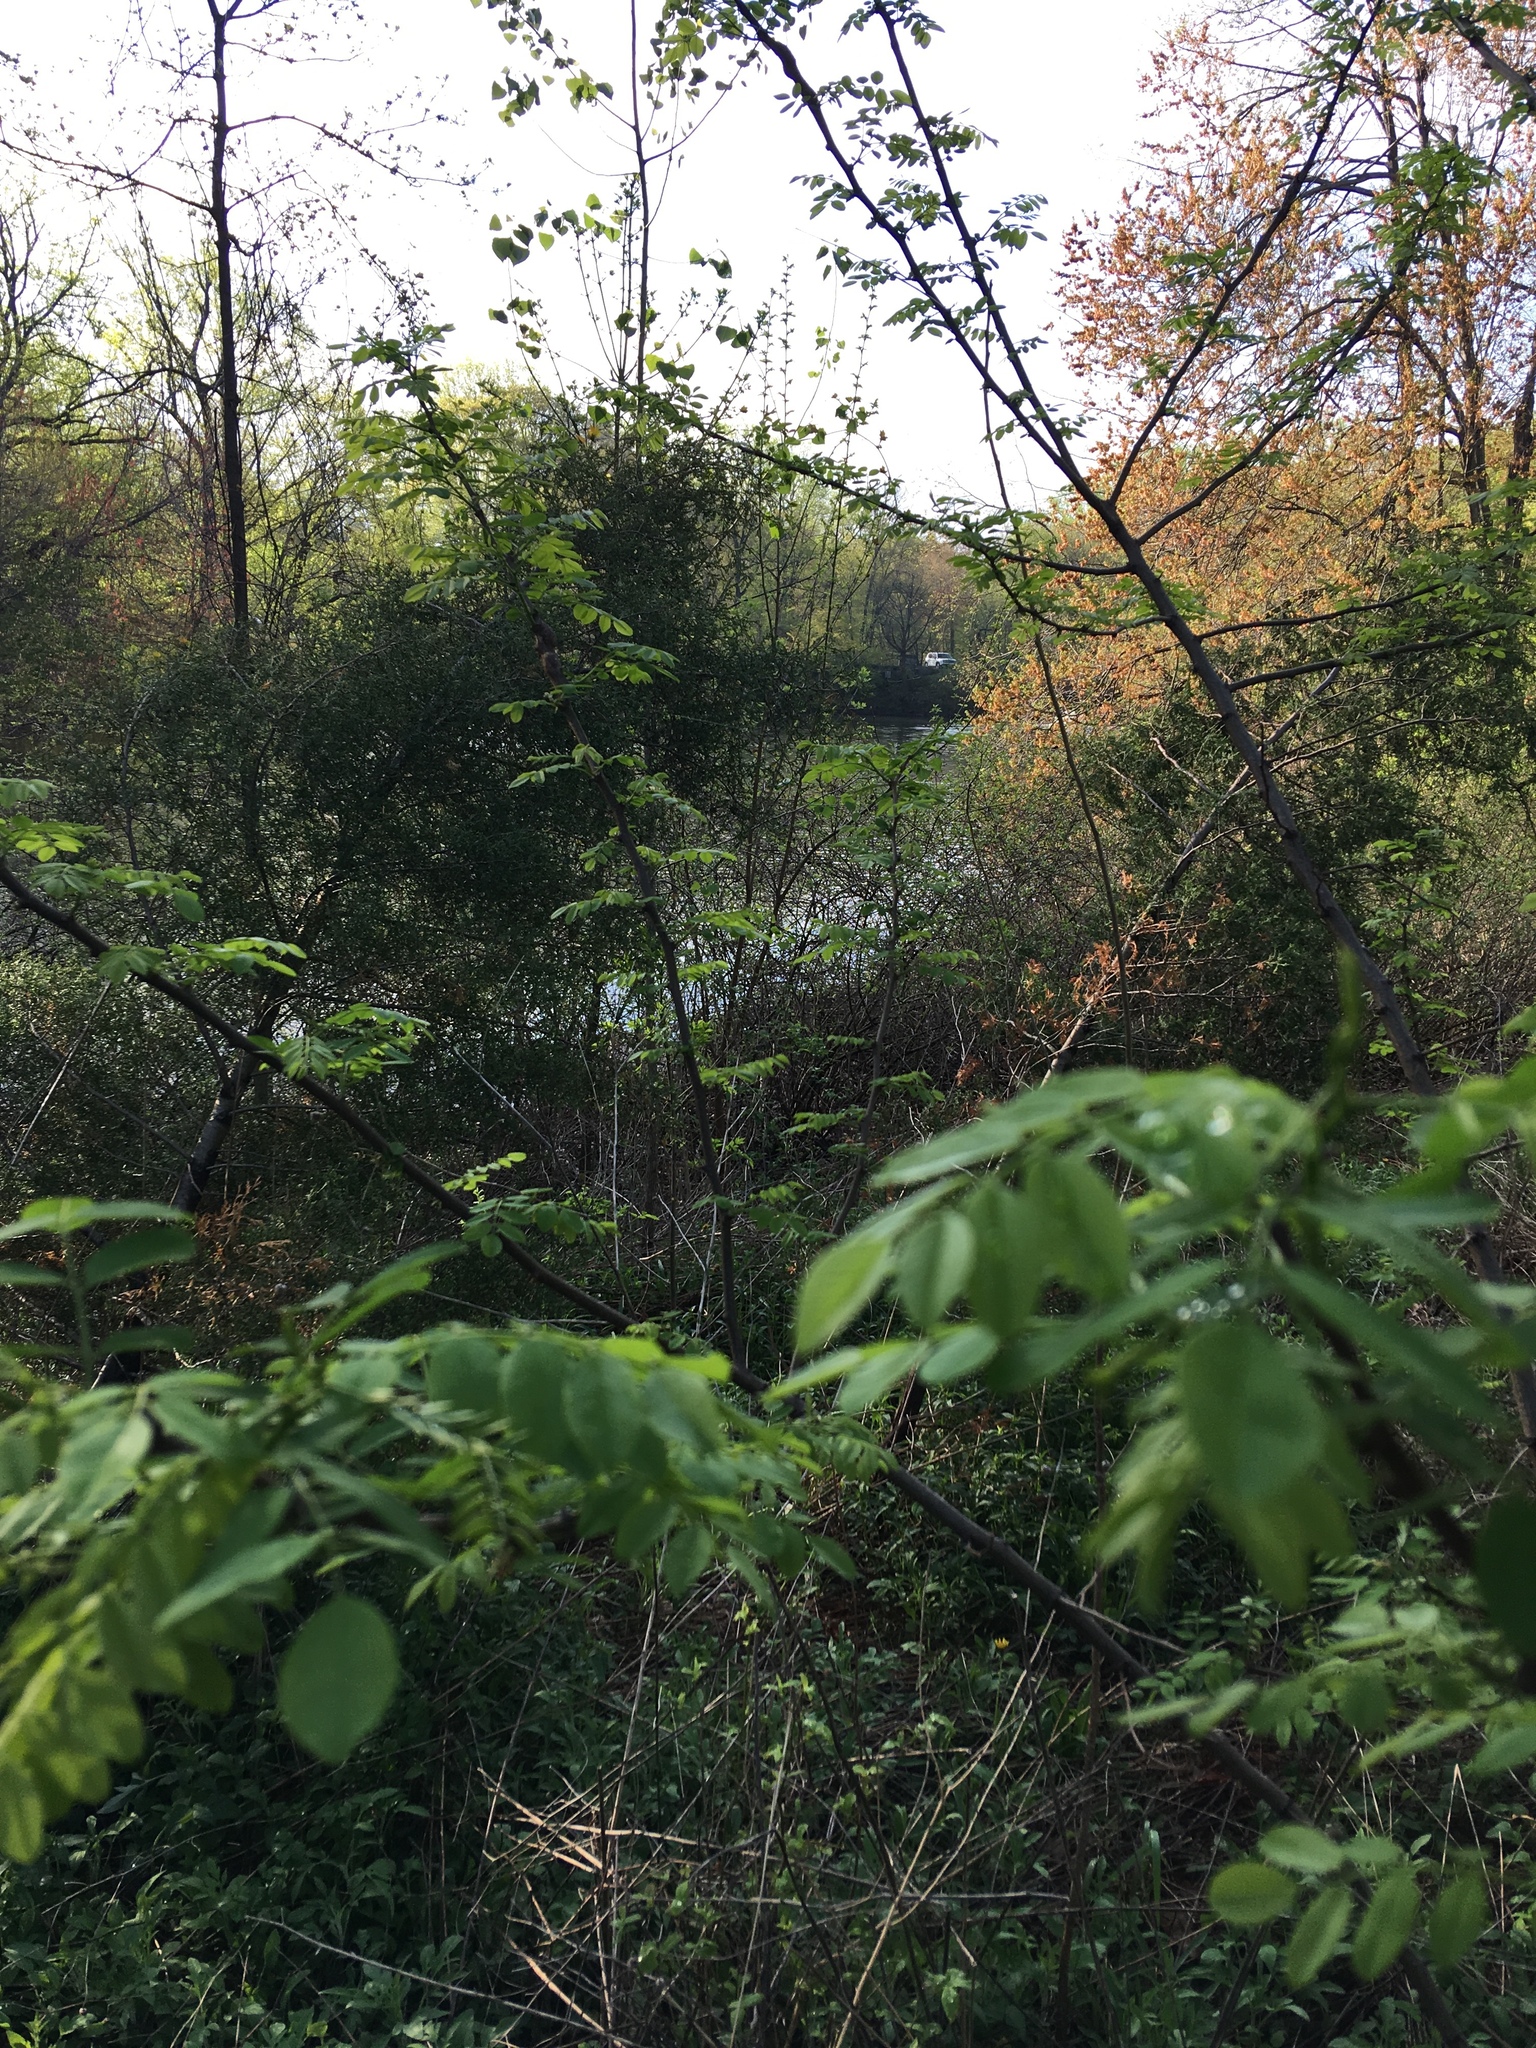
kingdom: Plantae
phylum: Tracheophyta
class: Magnoliopsida
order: Fabales
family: Fabaceae
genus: Robinia
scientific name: Robinia pseudoacacia
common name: Black locust
